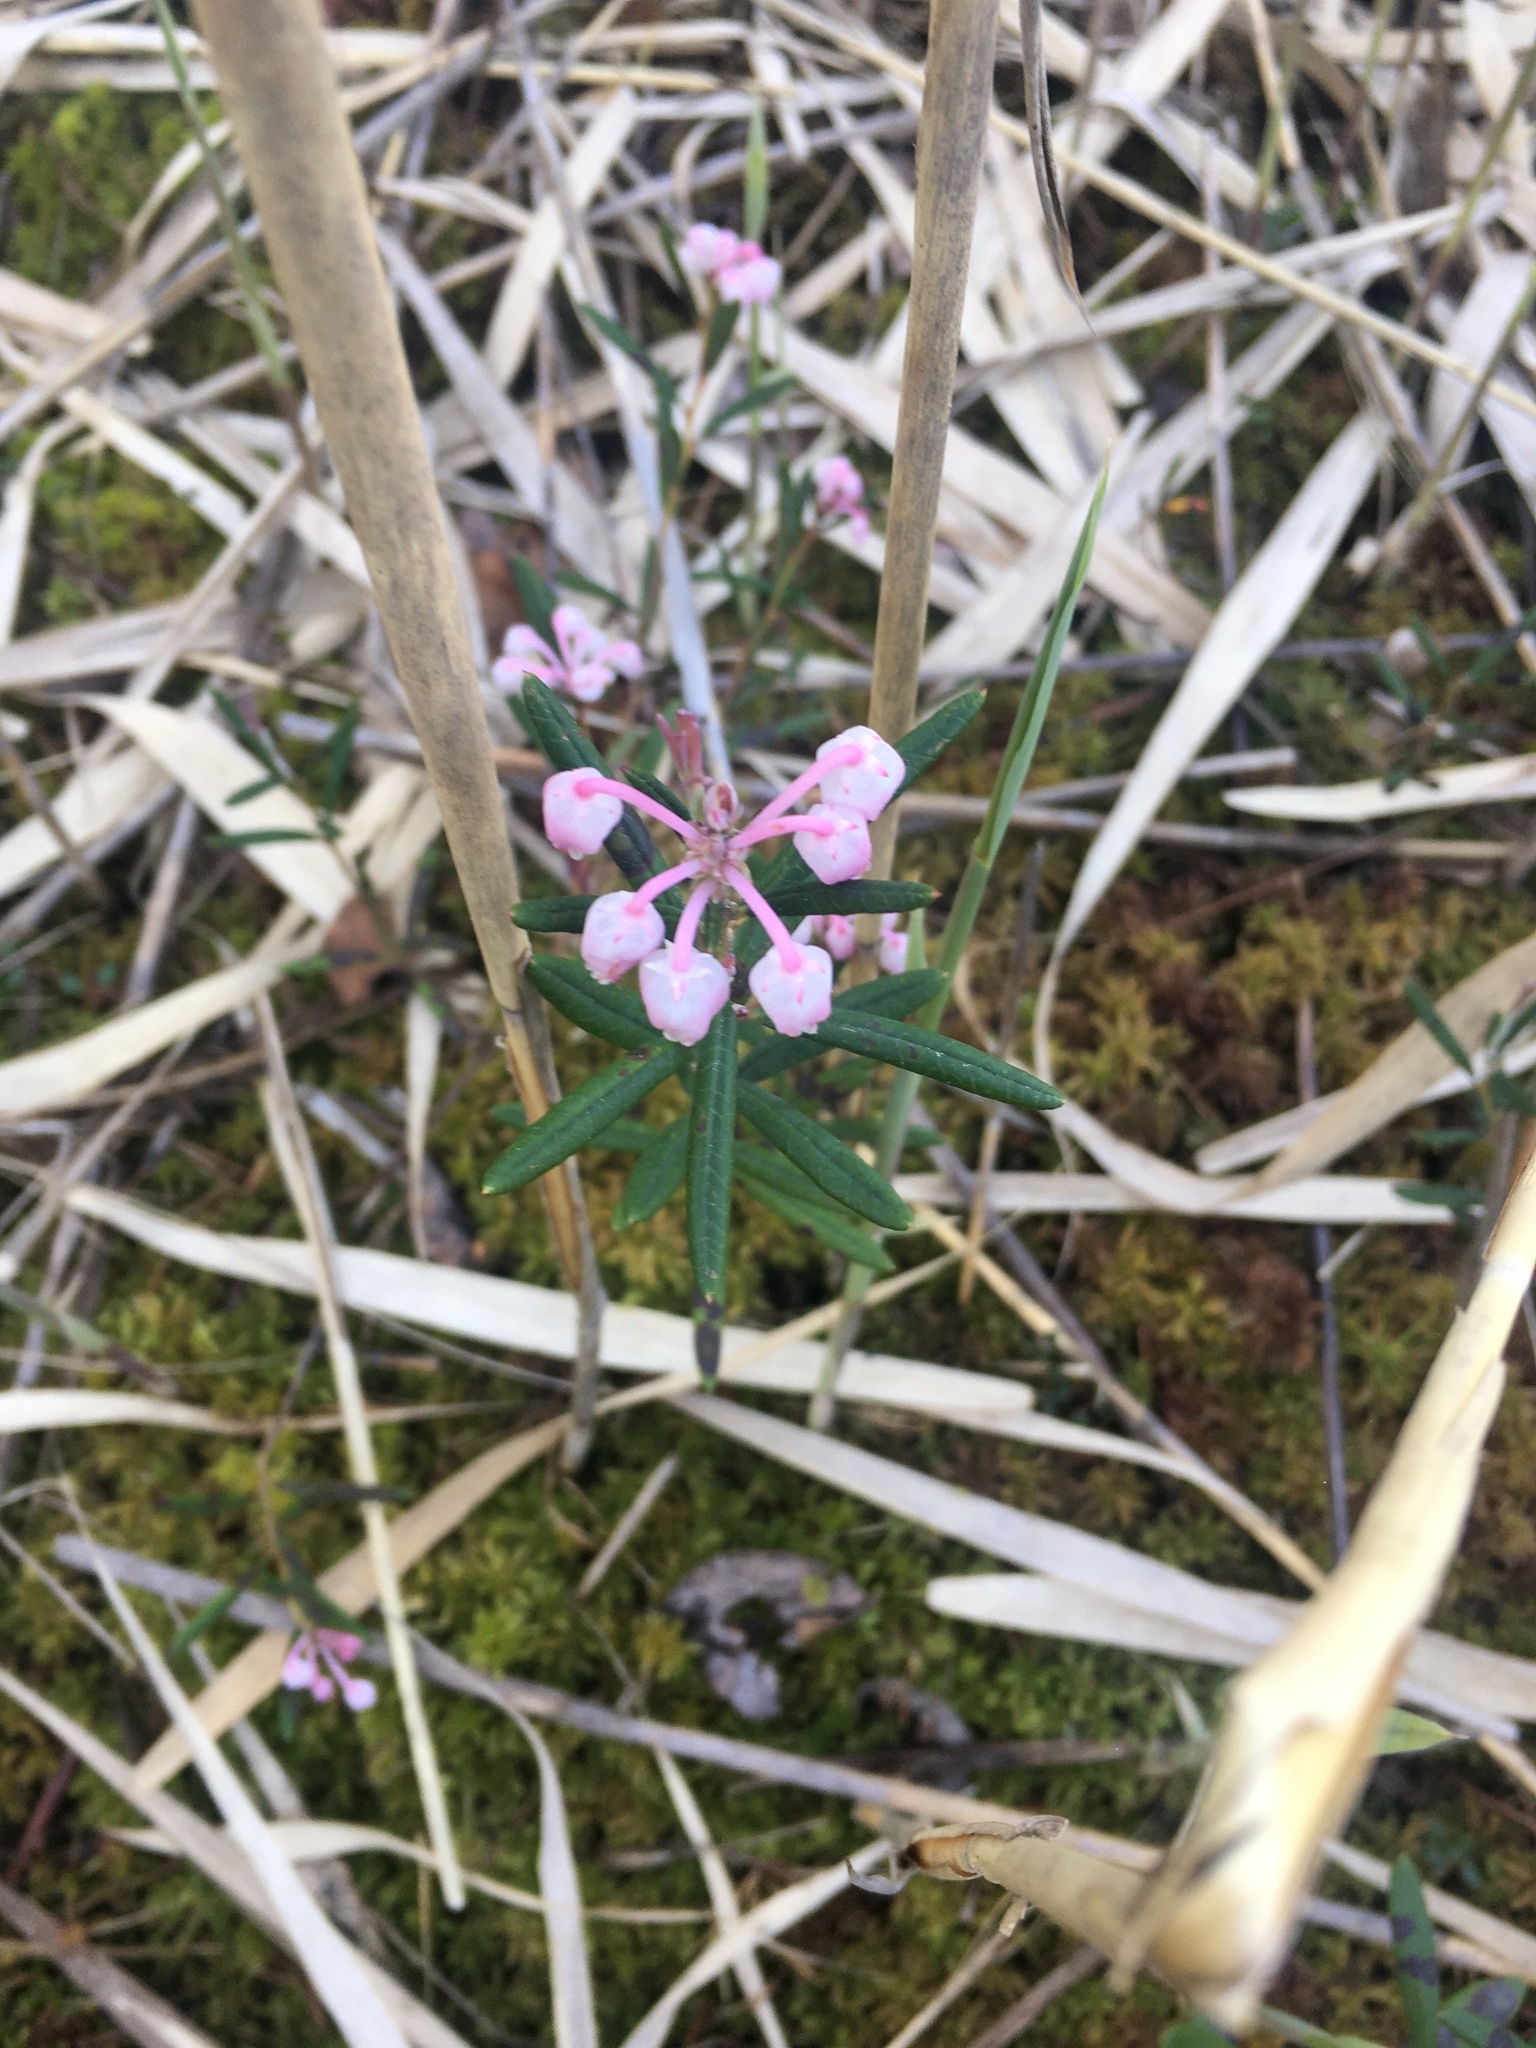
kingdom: Plantae
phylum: Tracheophyta
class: Magnoliopsida
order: Ericales
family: Ericaceae
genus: Andromeda
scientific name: Andromeda polifolia
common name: Bog-rosemary
